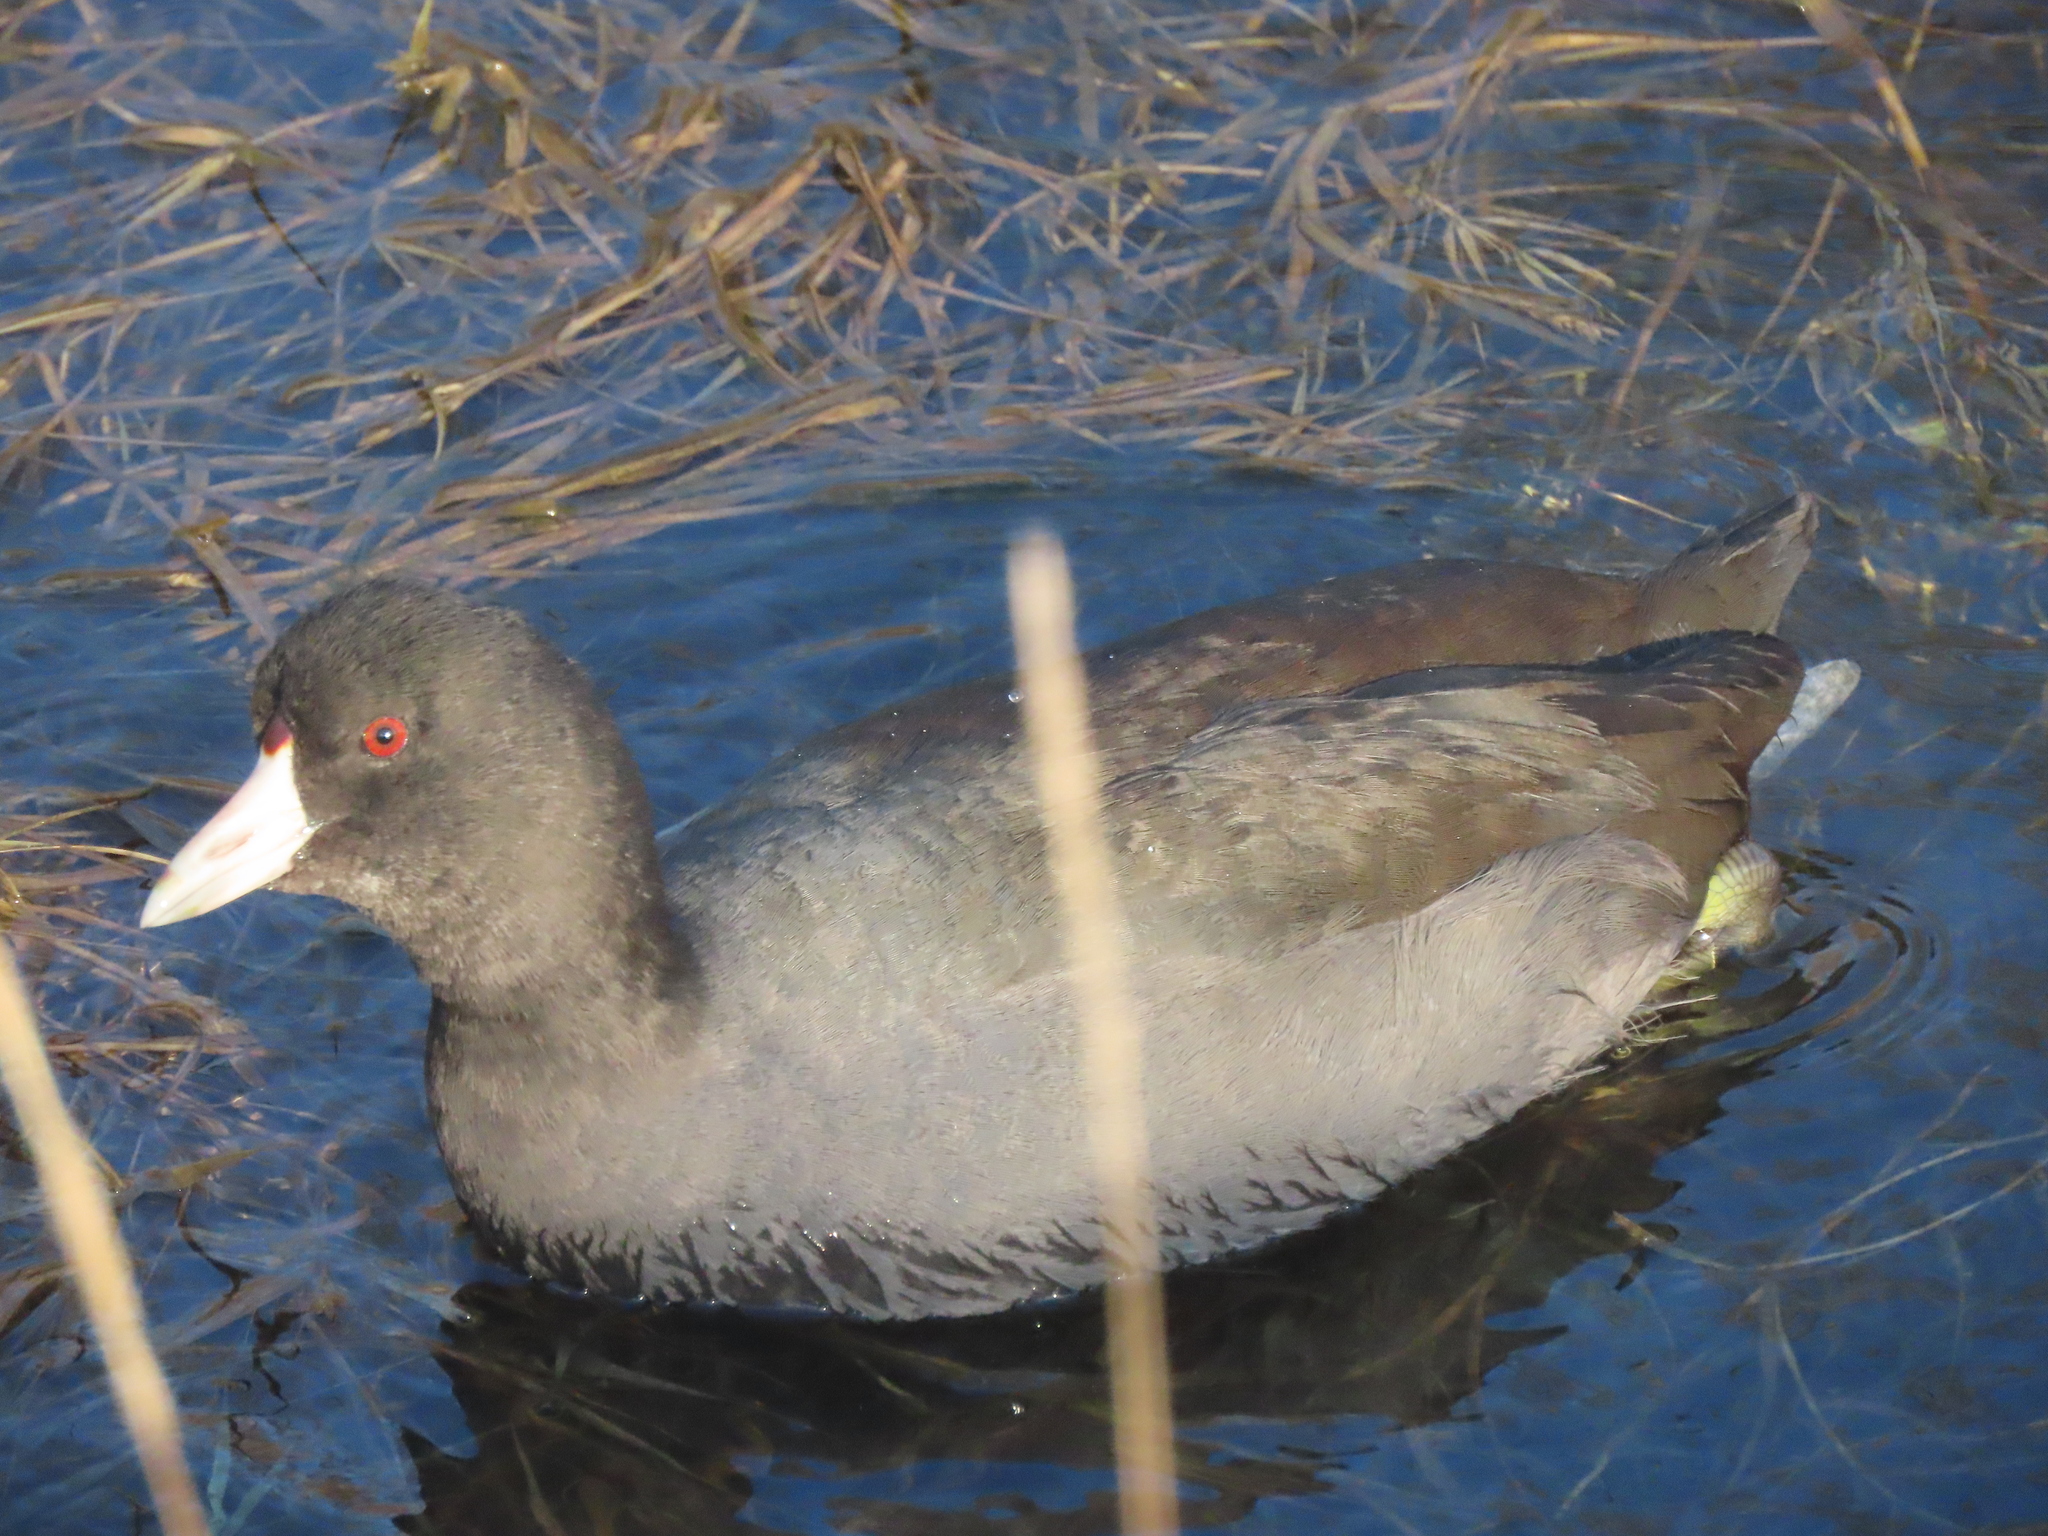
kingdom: Animalia
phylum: Chordata
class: Aves
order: Gruiformes
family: Rallidae
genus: Fulica
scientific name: Fulica americana
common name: American coot
